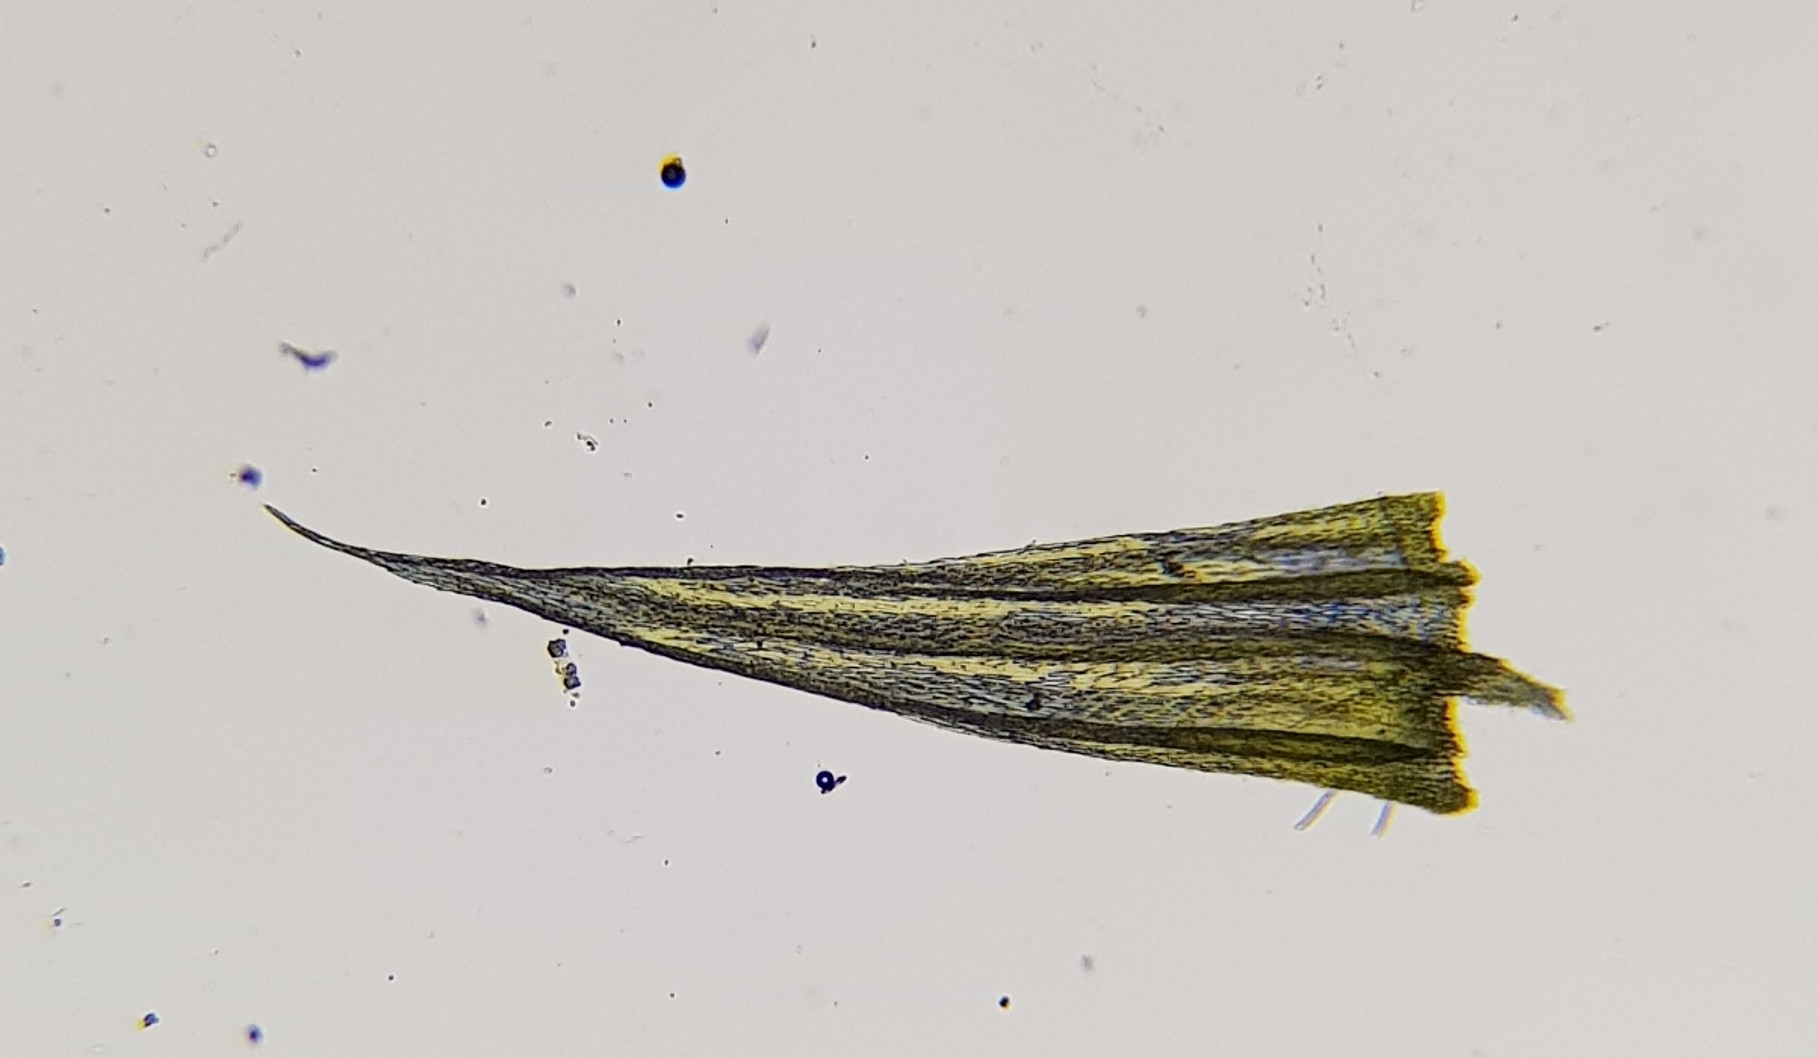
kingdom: Plantae
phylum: Bryophyta
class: Bryopsida
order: Hypnales
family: Brachytheciaceae
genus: Homalothecium
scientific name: Homalothecium sericeum
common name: Silky wall feather-moss
